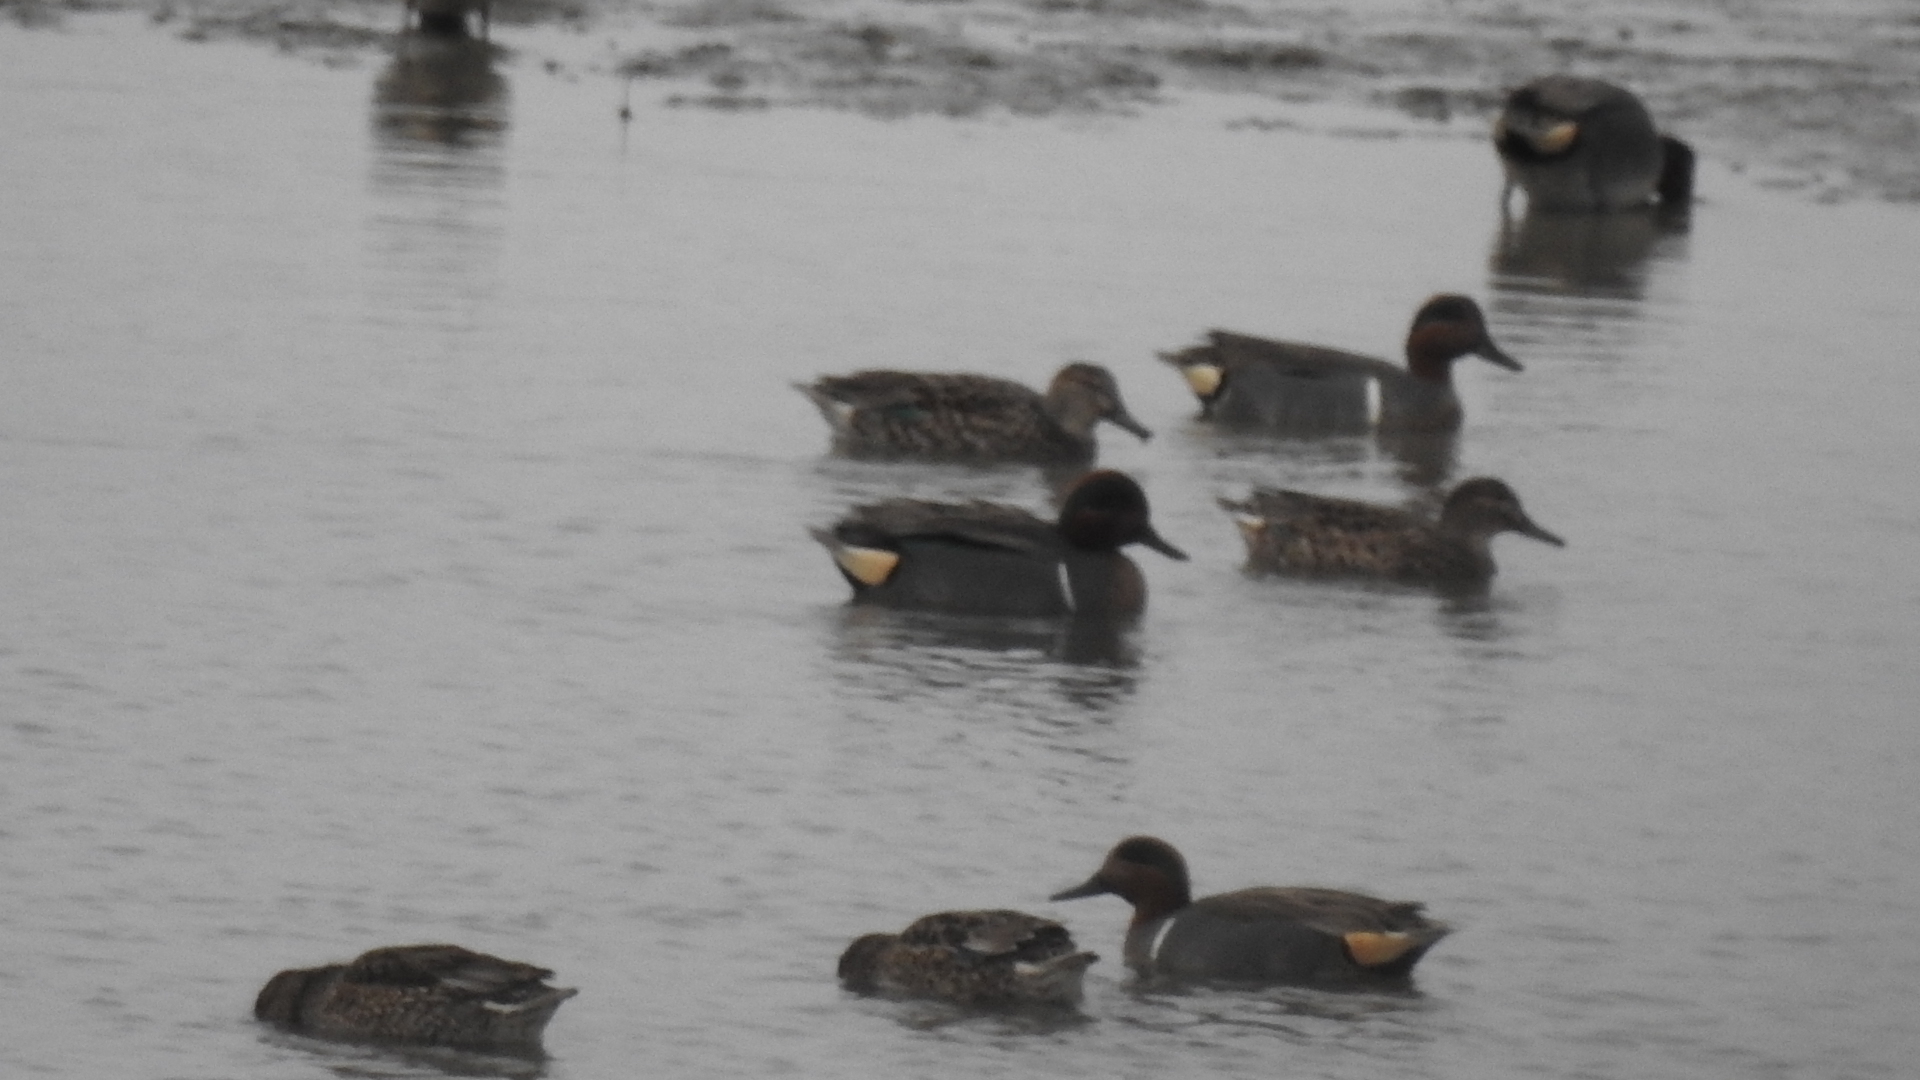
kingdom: Animalia
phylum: Chordata
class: Aves
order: Anseriformes
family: Anatidae
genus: Anas
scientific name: Anas crecca
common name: Eurasian teal
